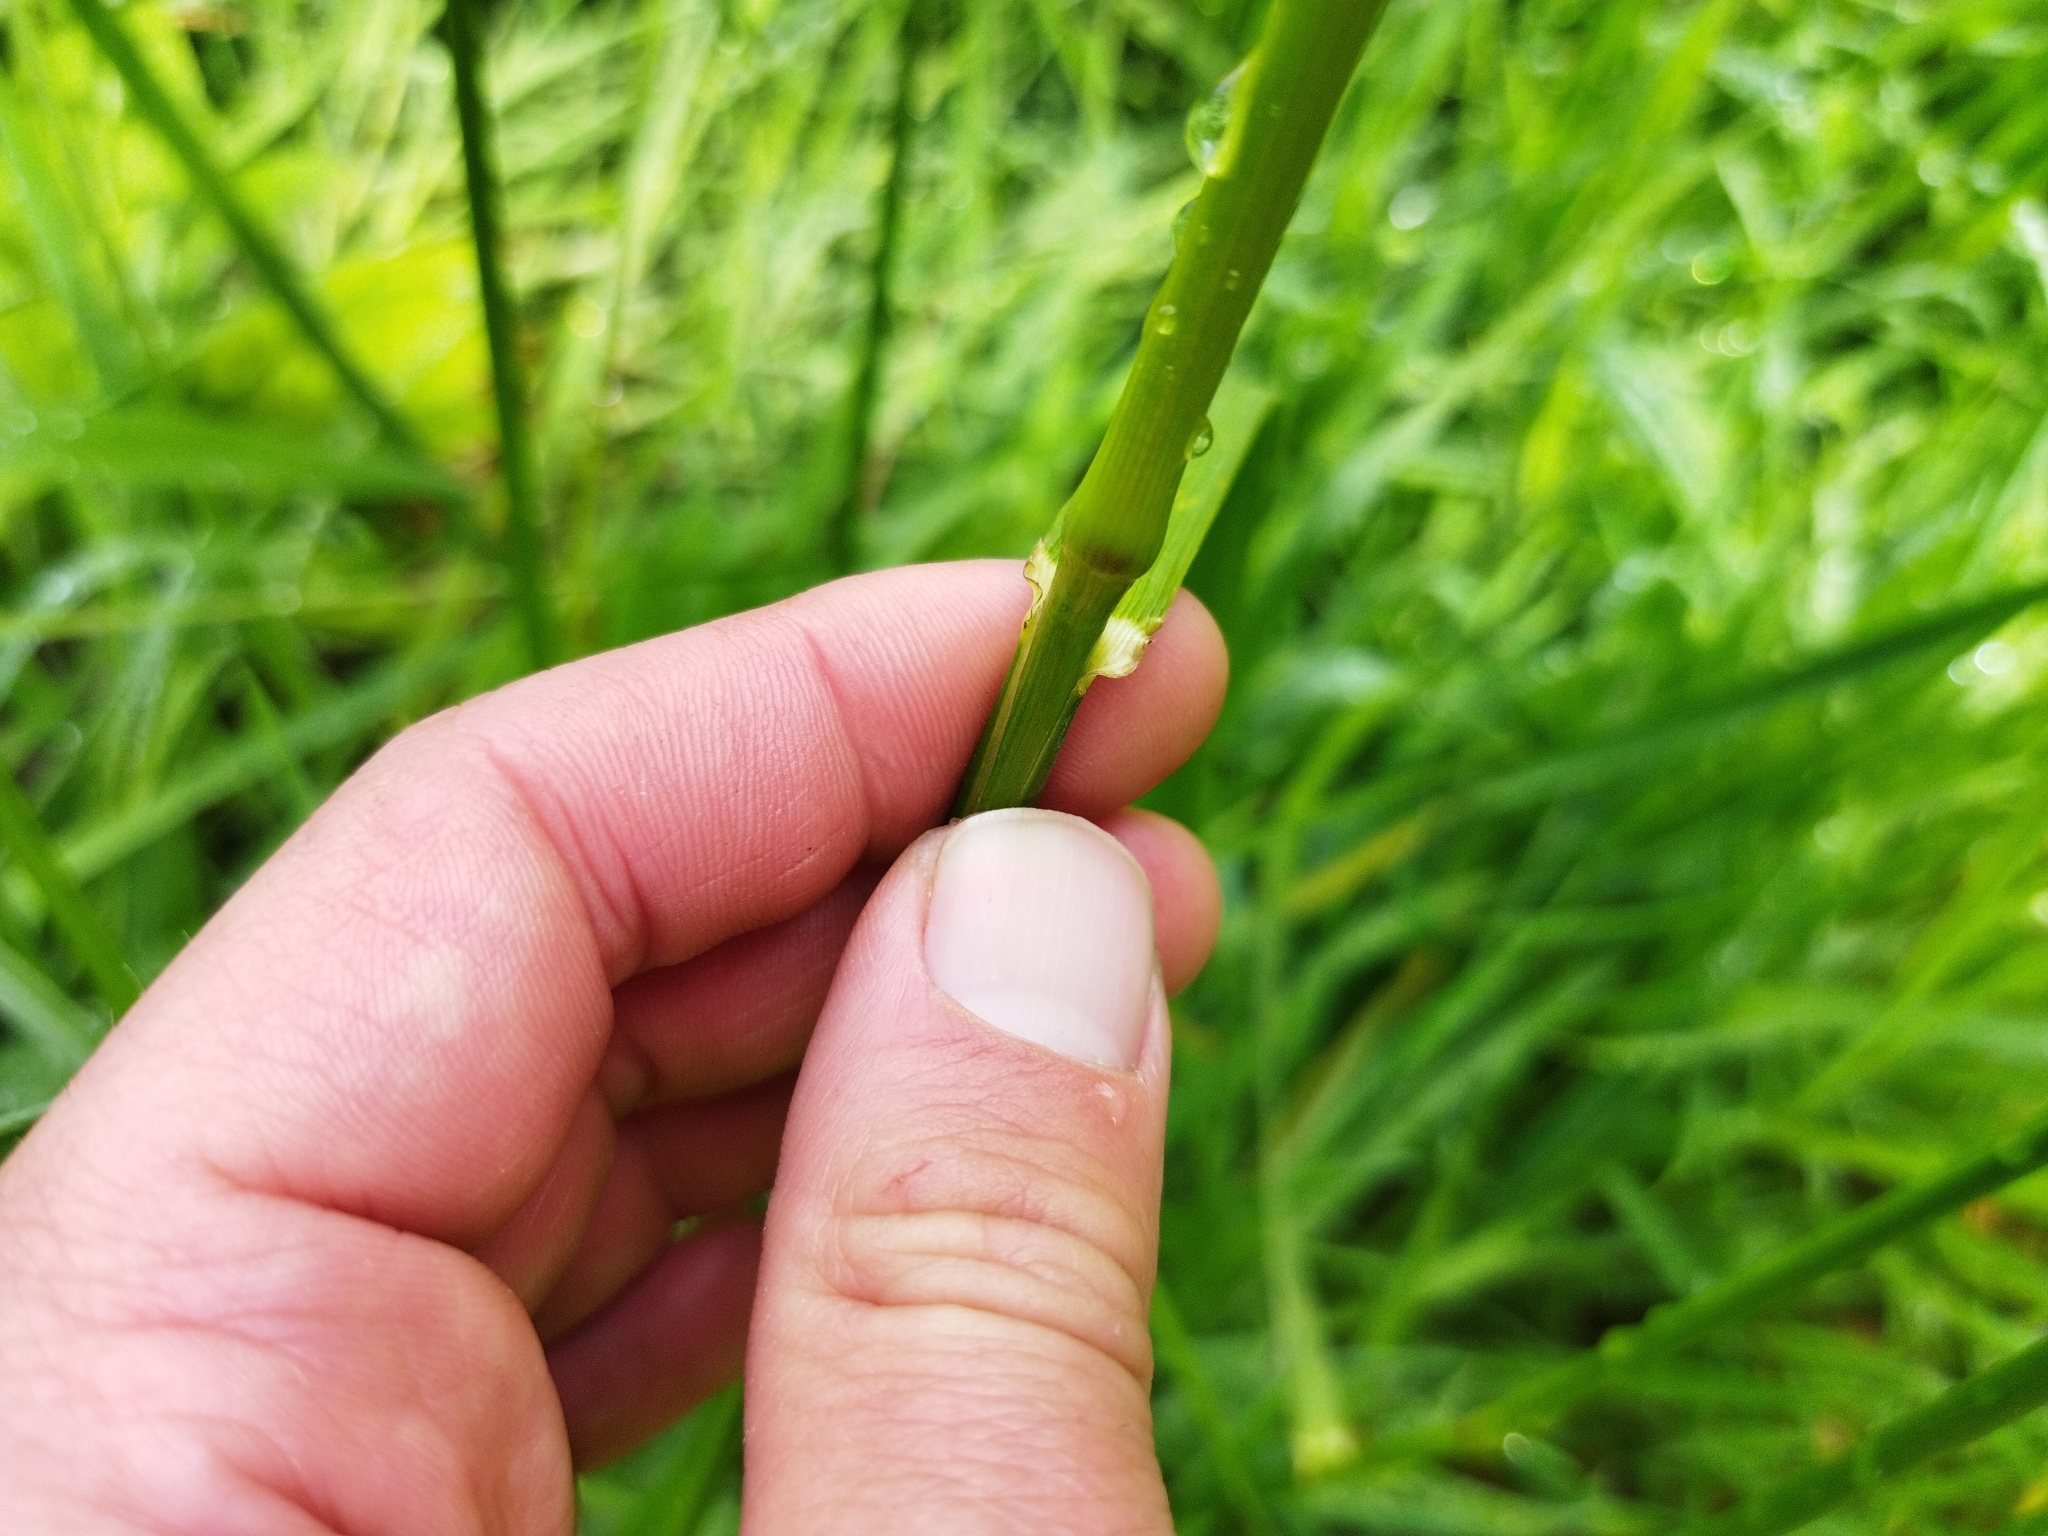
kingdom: Plantae
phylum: Tracheophyta
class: Liliopsida
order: Poales
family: Poaceae
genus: Lolium
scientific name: Lolium arundinaceum
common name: Reed fescue
